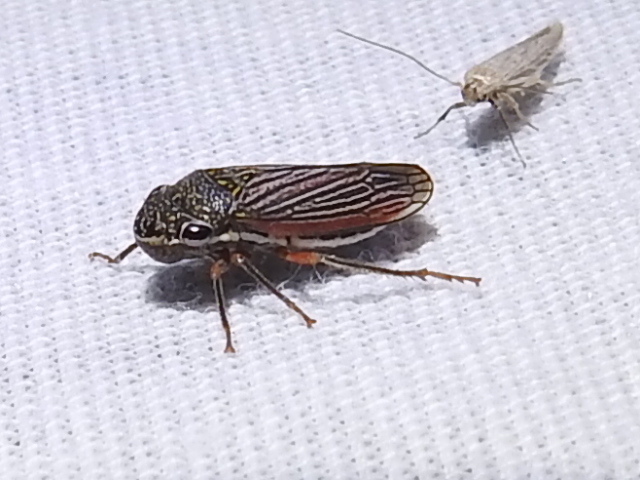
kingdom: Animalia
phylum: Arthropoda
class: Insecta
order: Hemiptera
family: Cicadellidae
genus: Cuerna
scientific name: Cuerna costalis
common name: Lateral-lined sharpshooter
